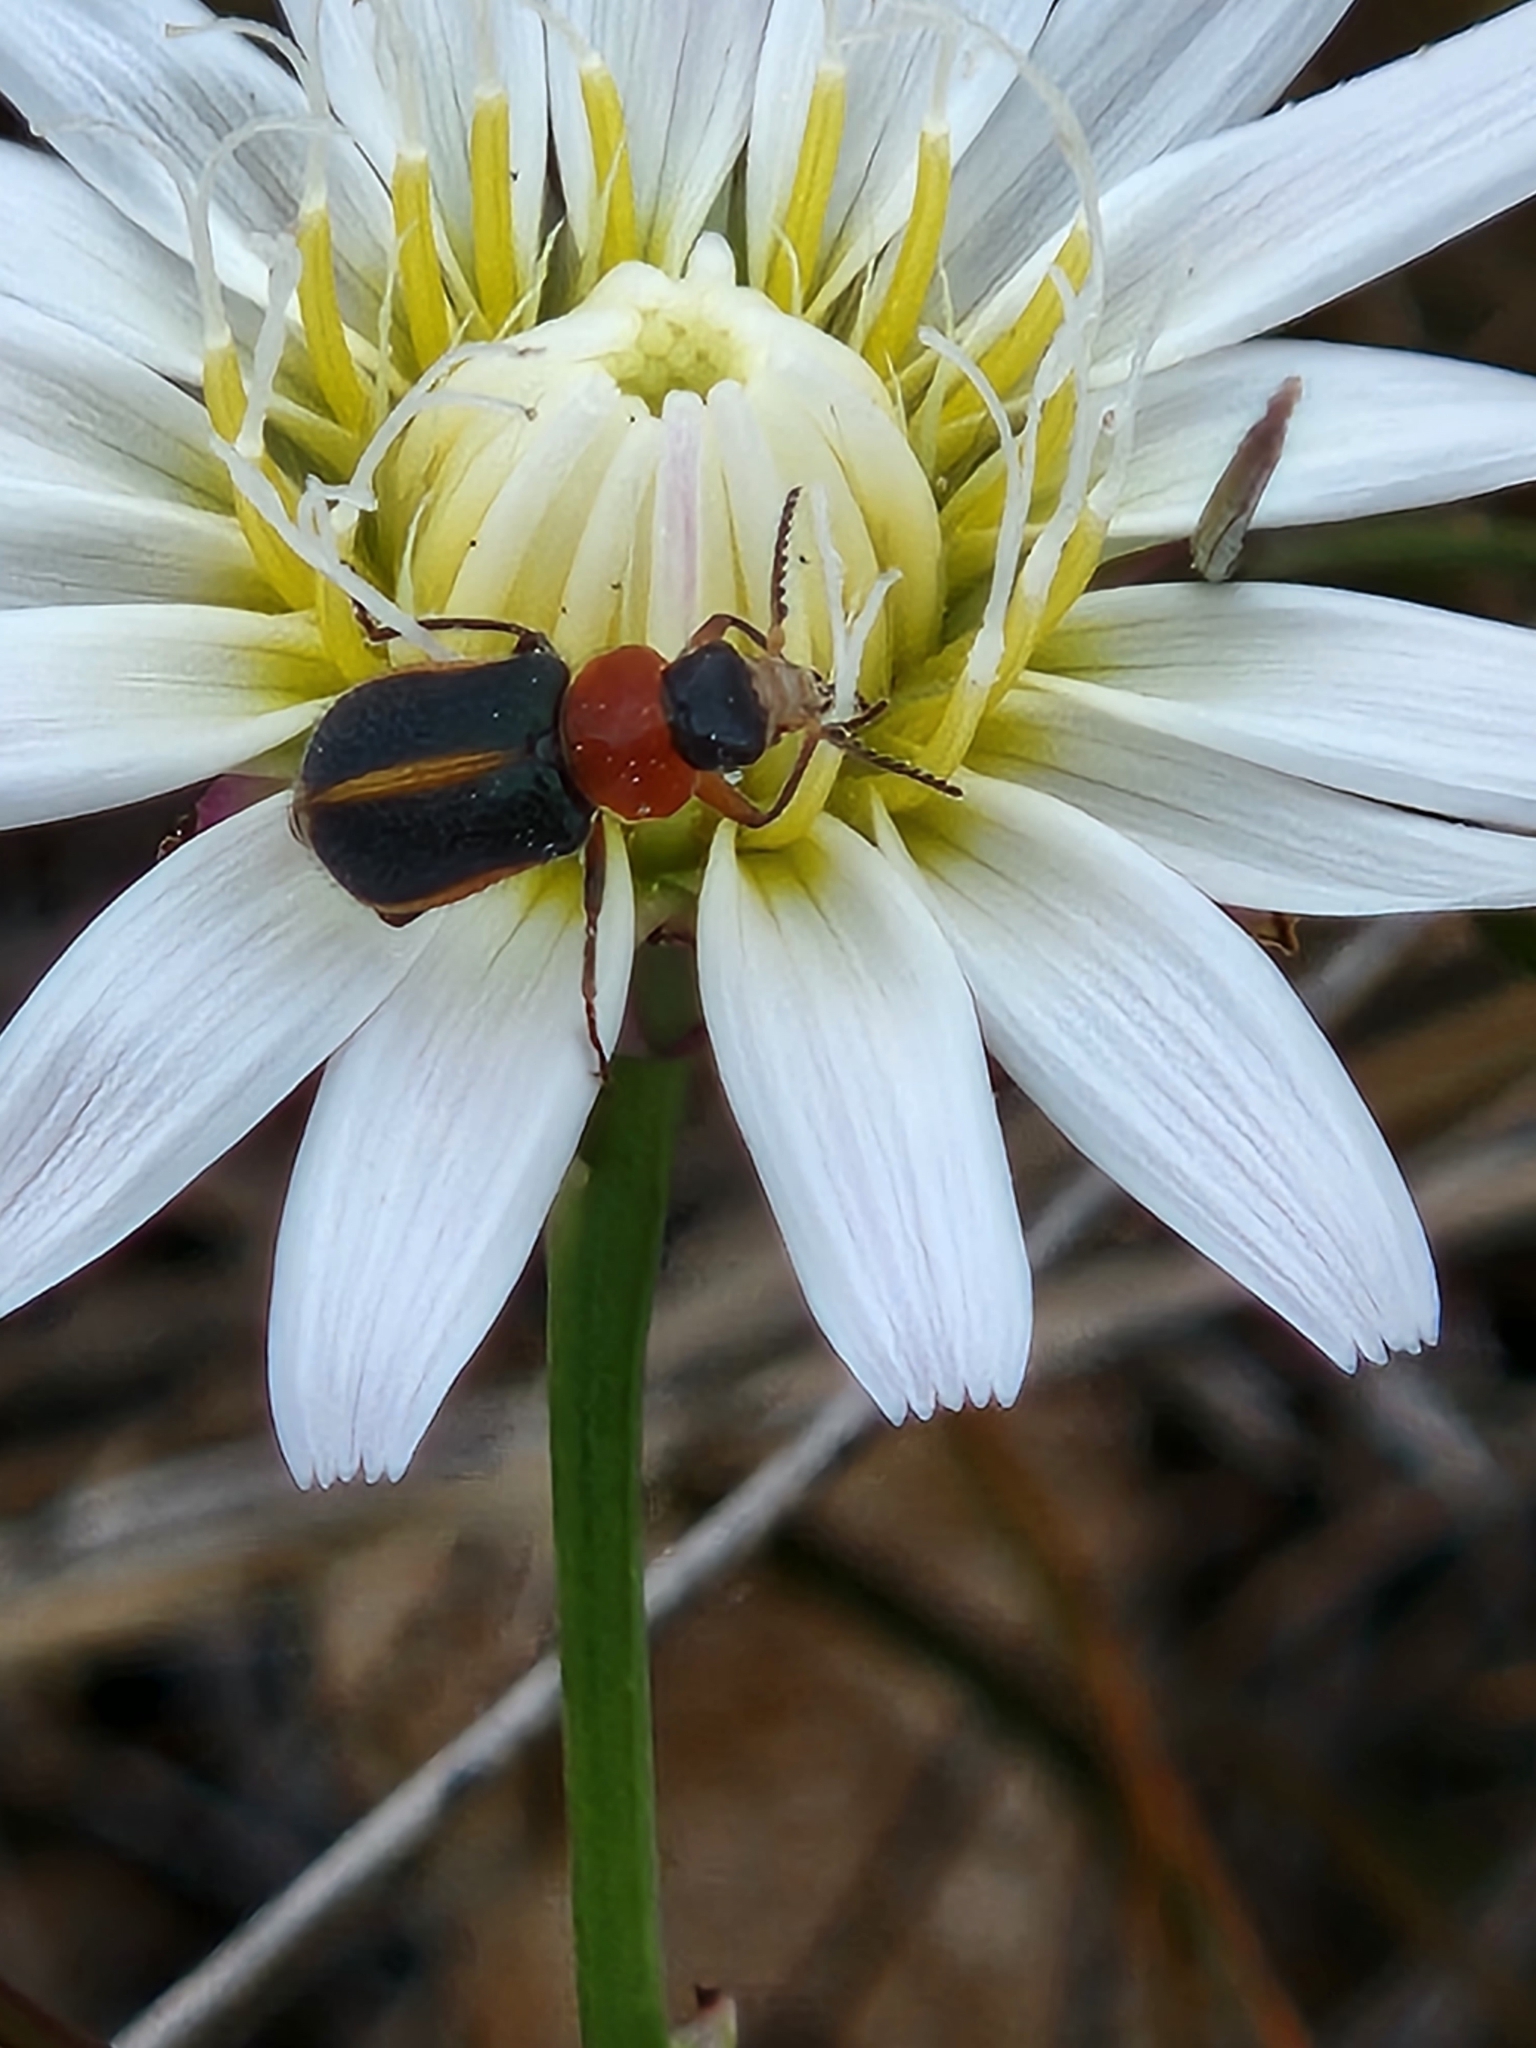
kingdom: Animalia
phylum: Arthropoda
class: Insecta
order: Coleoptera
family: Melyridae
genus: Collops
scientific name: Collops
